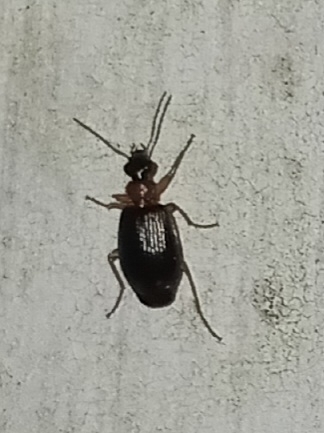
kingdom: Animalia
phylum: Arthropoda
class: Insecta
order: Coleoptera
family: Carabidae
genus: Lebia
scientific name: Lebia analis
